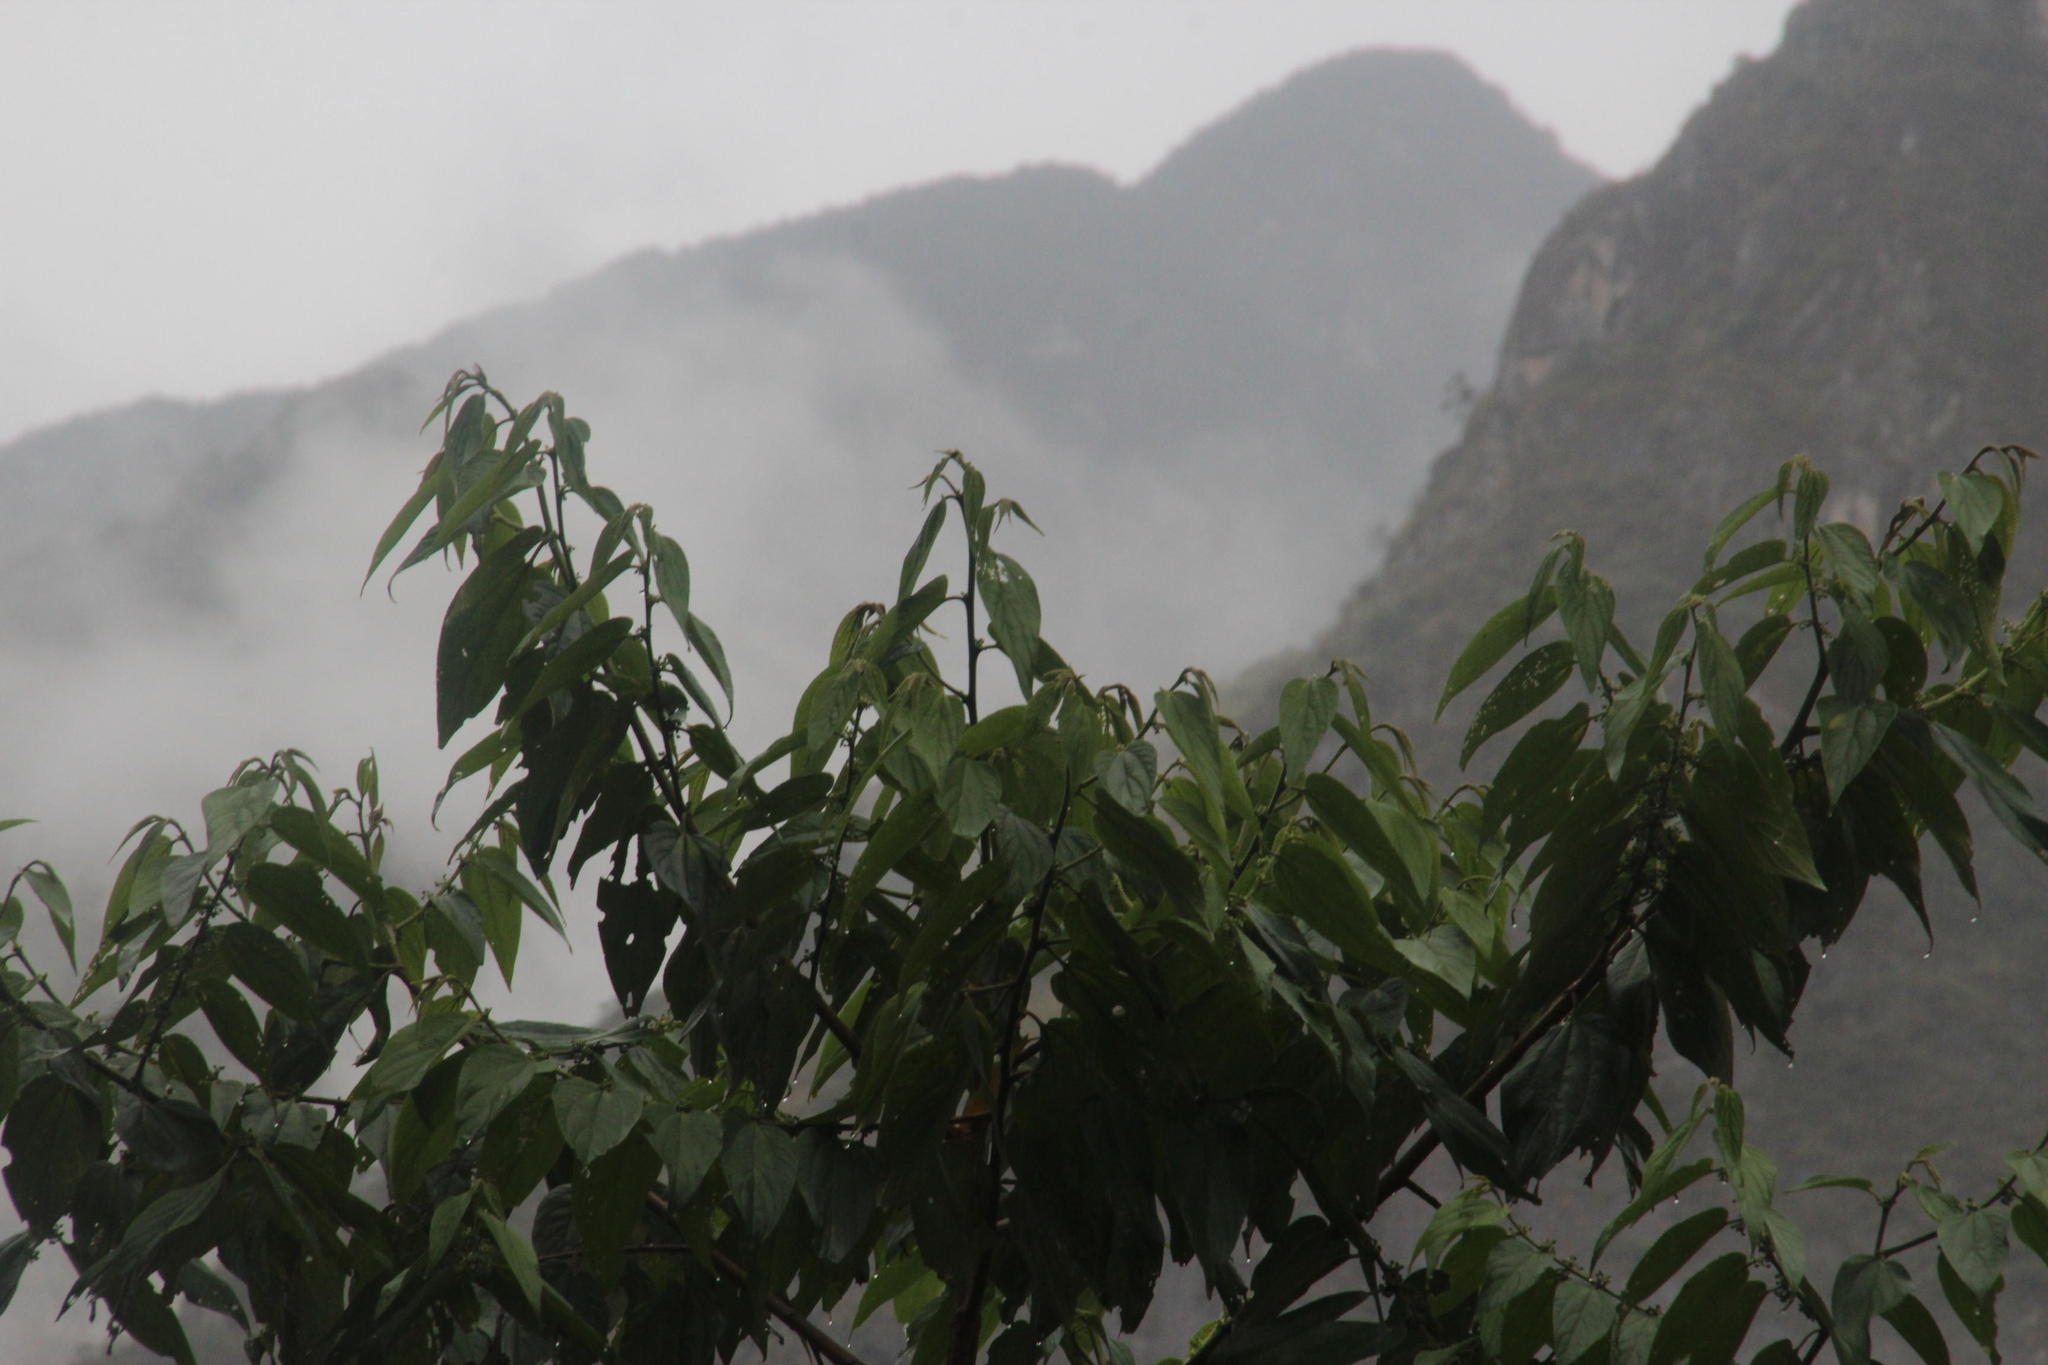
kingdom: Plantae
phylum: Tracheophyta
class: Magnoliopsida
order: Rosales
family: Cannabaceae
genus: Trema
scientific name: Trema micranthum
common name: Jamaican nettletree
